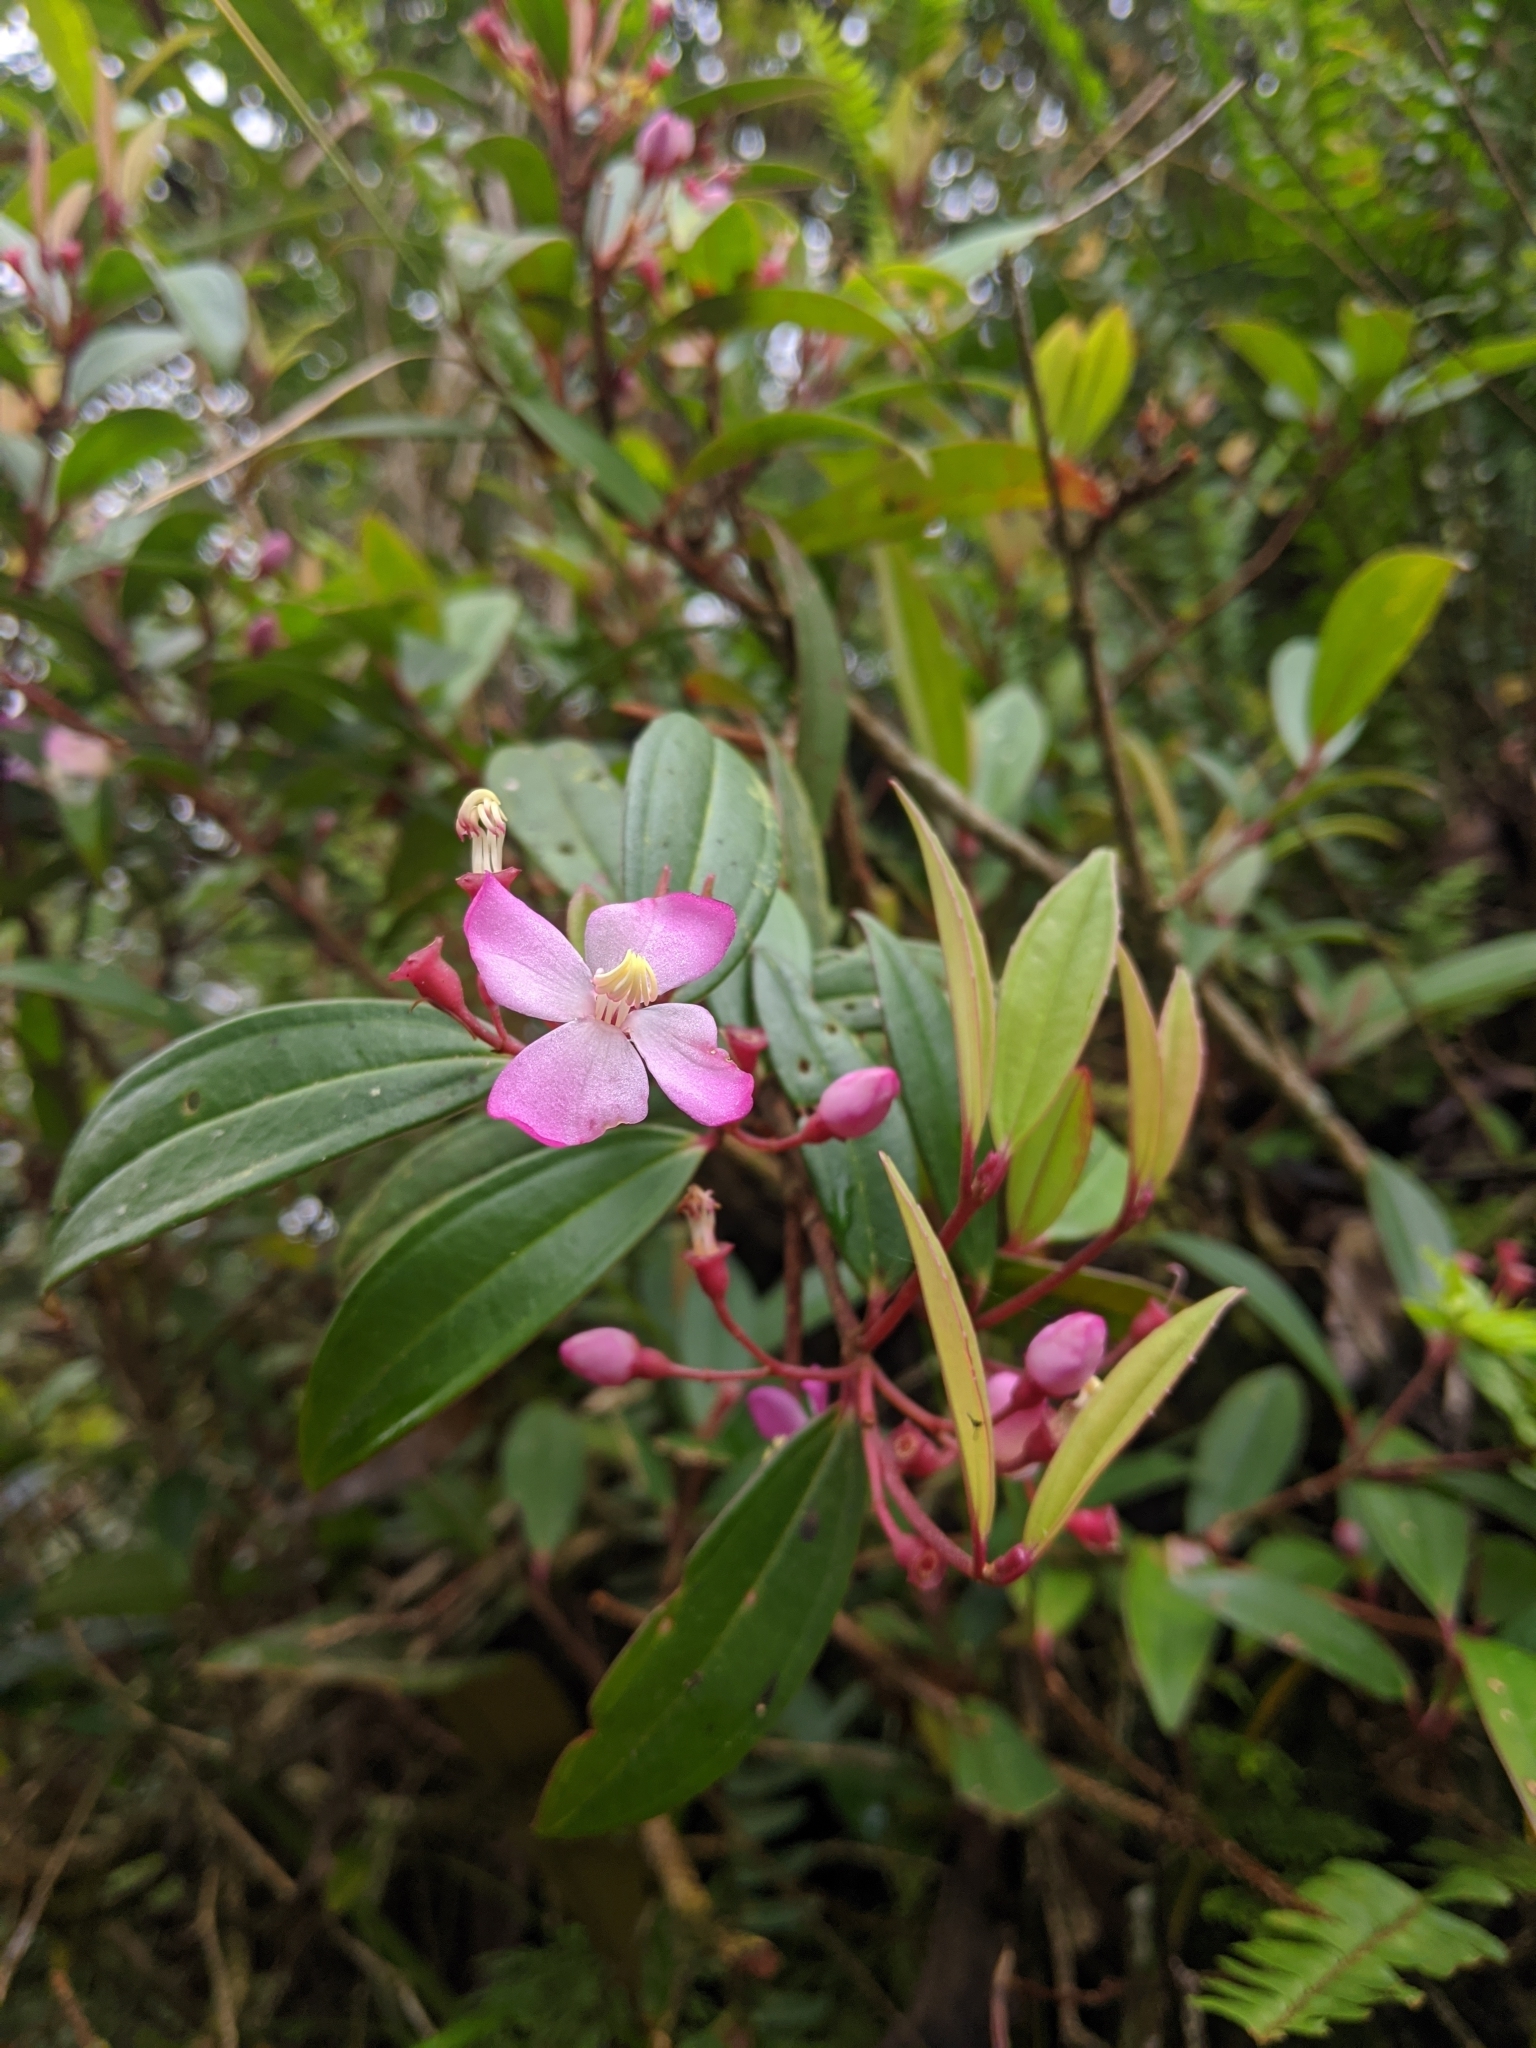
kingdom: Plantae
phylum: Tracheophyta
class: Magnoliopsida
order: Myrtales
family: Melastomataceae
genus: Medinilla
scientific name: Medinilla fengii
